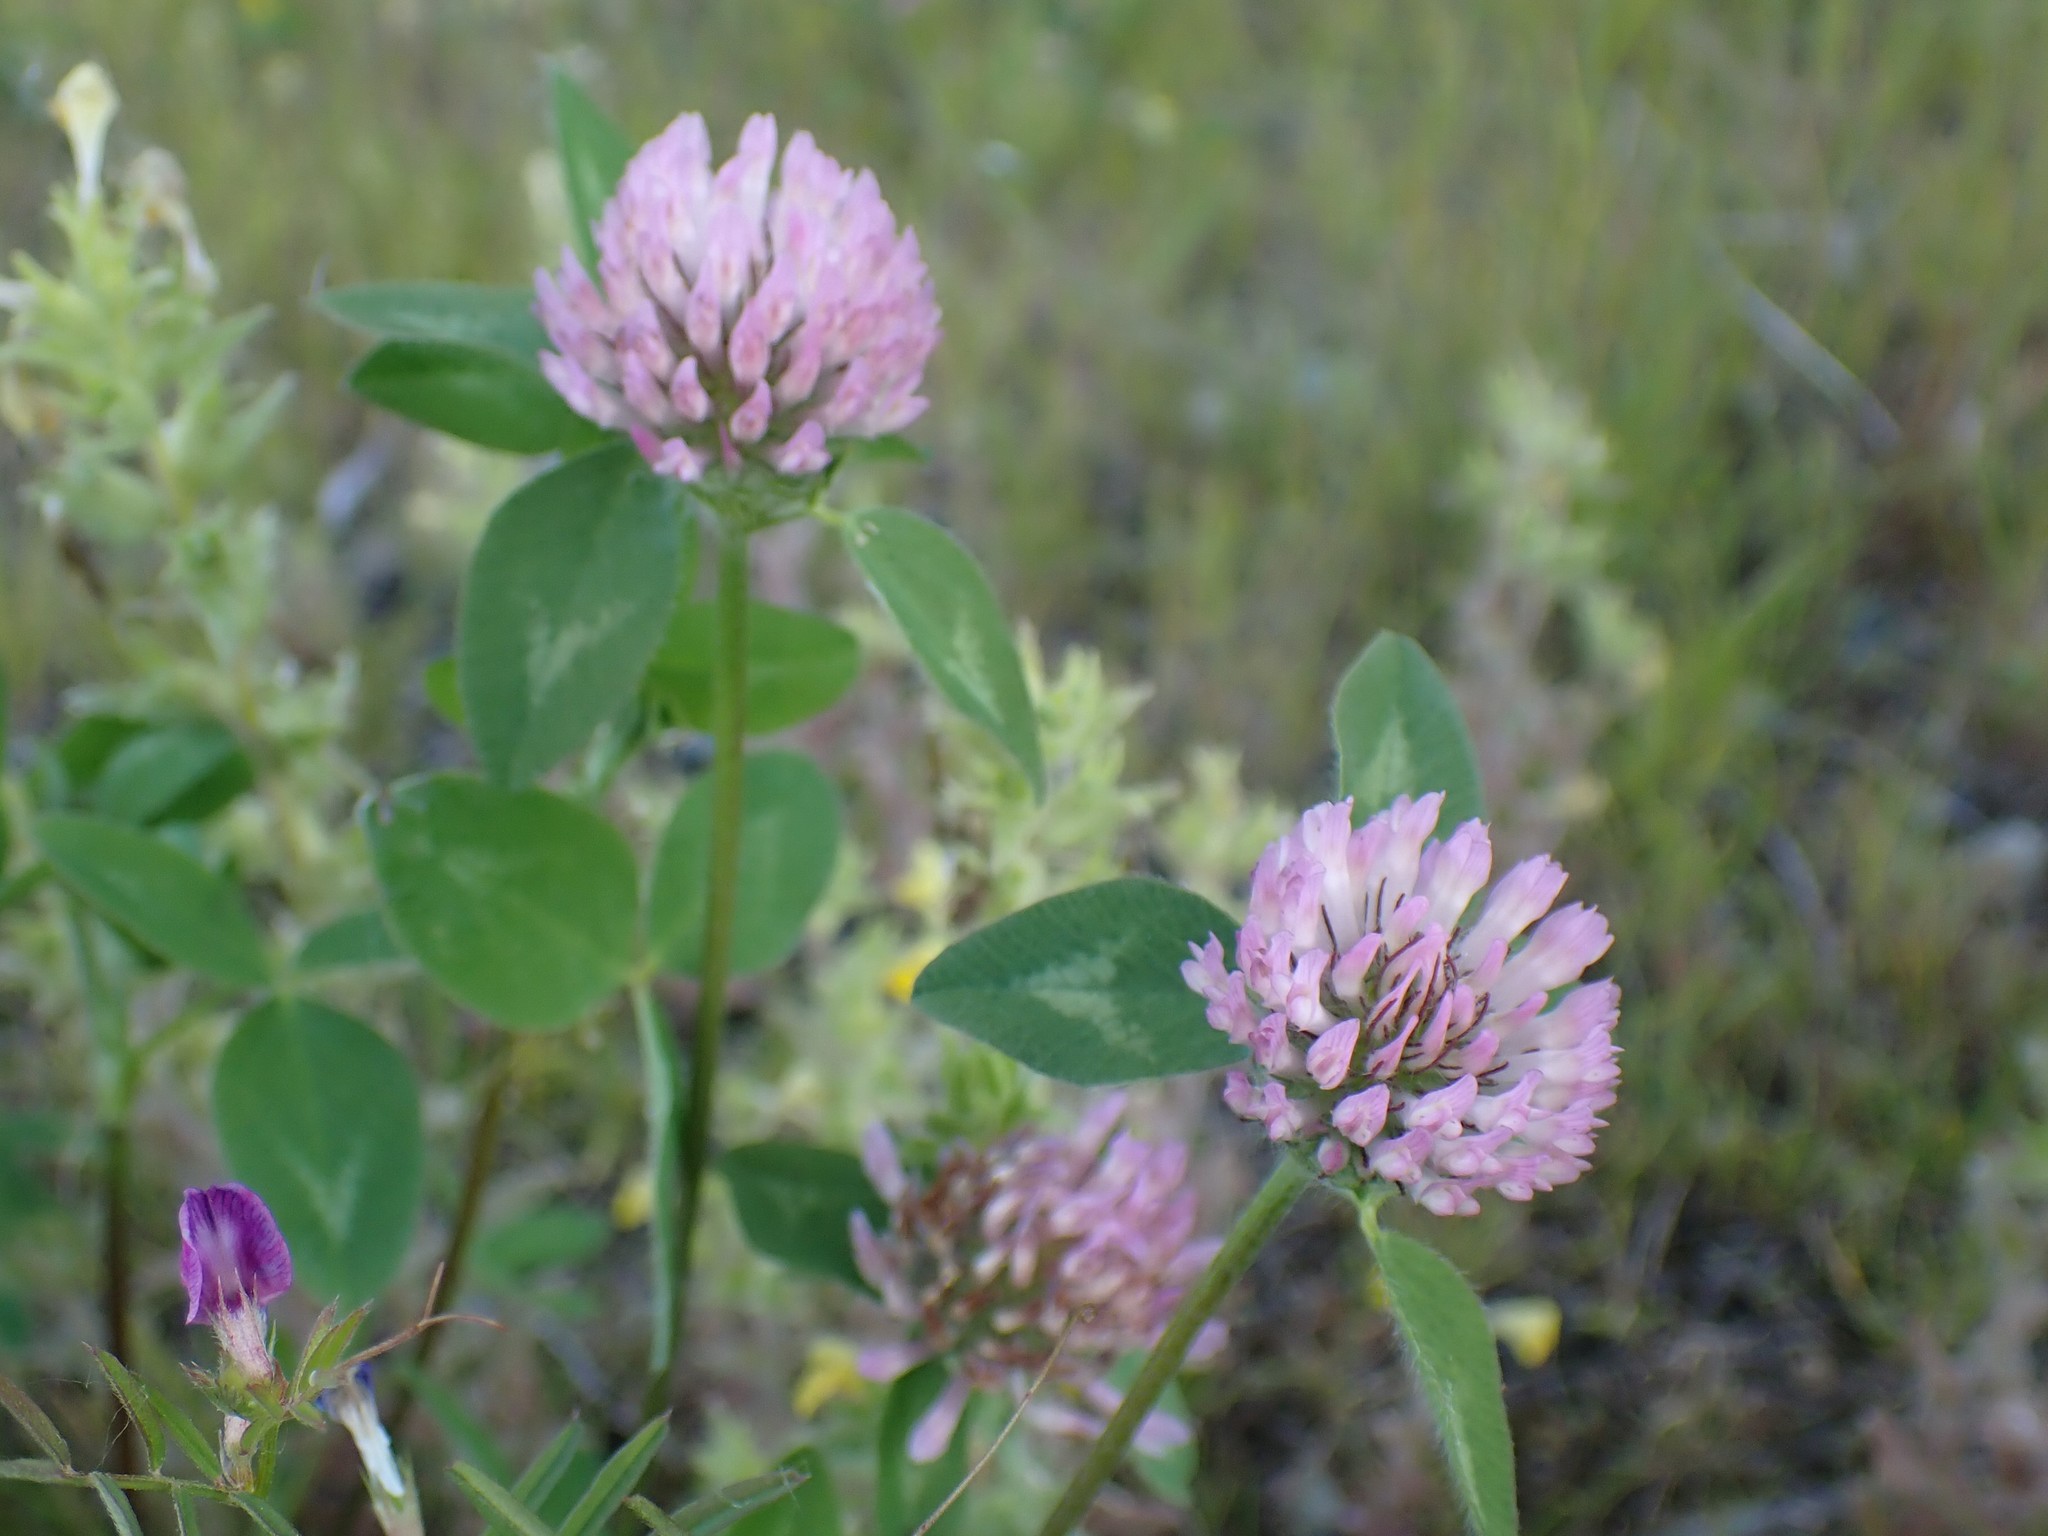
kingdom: Plantae
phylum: Tracheophyta
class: Magnoliopsida
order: Fabales
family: Fabaceae
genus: Trifolium
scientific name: Trifolium pratense
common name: Red clover
